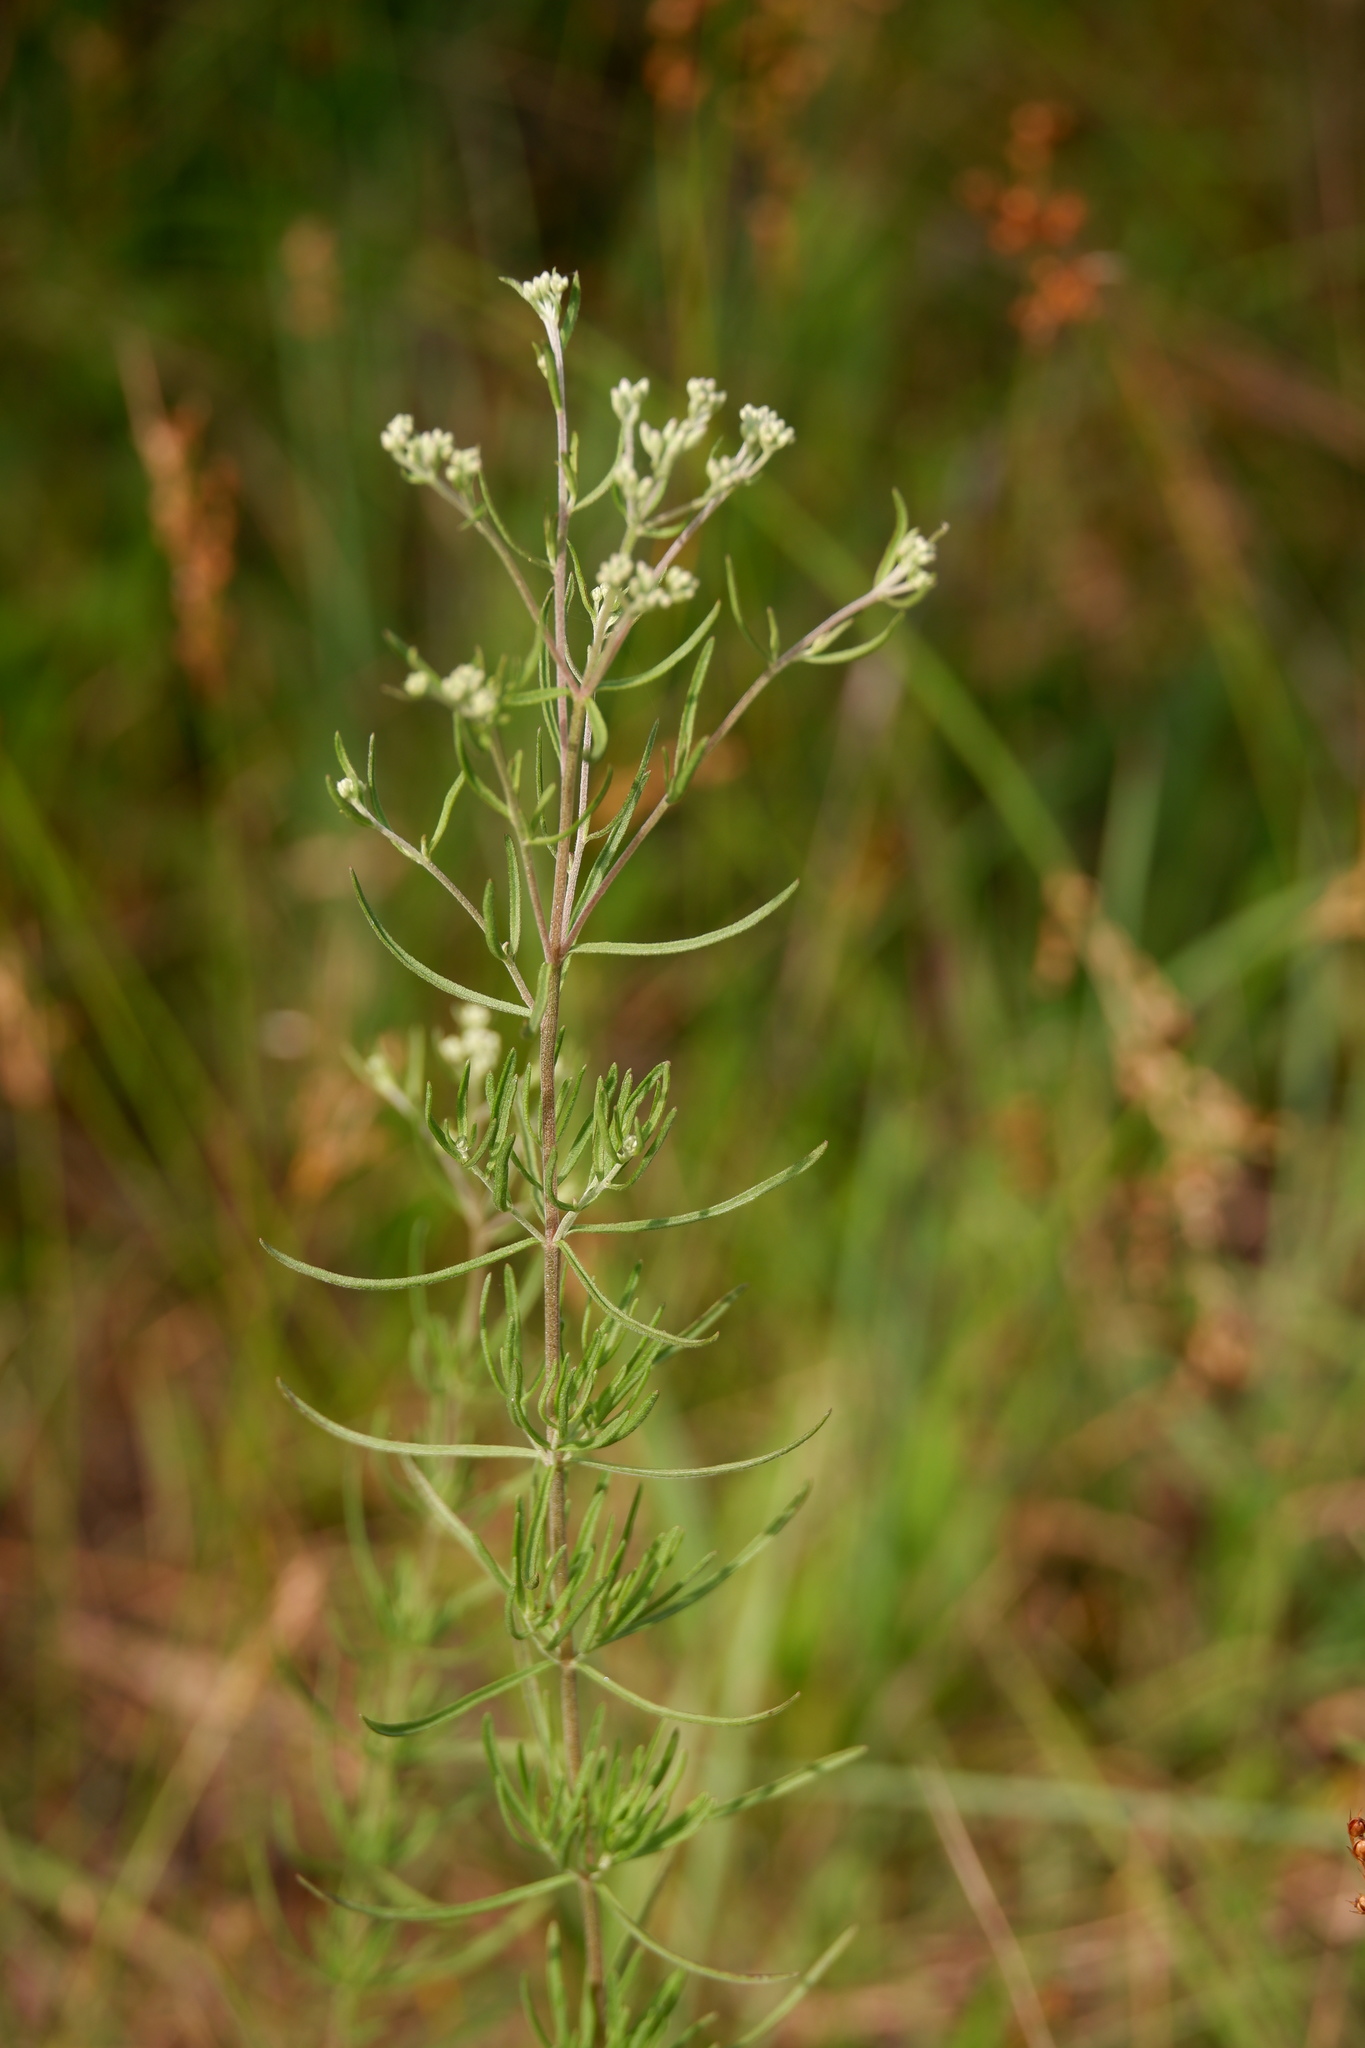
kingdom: Plantae
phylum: Tracheophyta
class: Magnoliopsida
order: Asterales
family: Asteraceae
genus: Eupatorium
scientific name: Eupatorium hyssopifolium
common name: Hyssop-leaf thoroughwort
